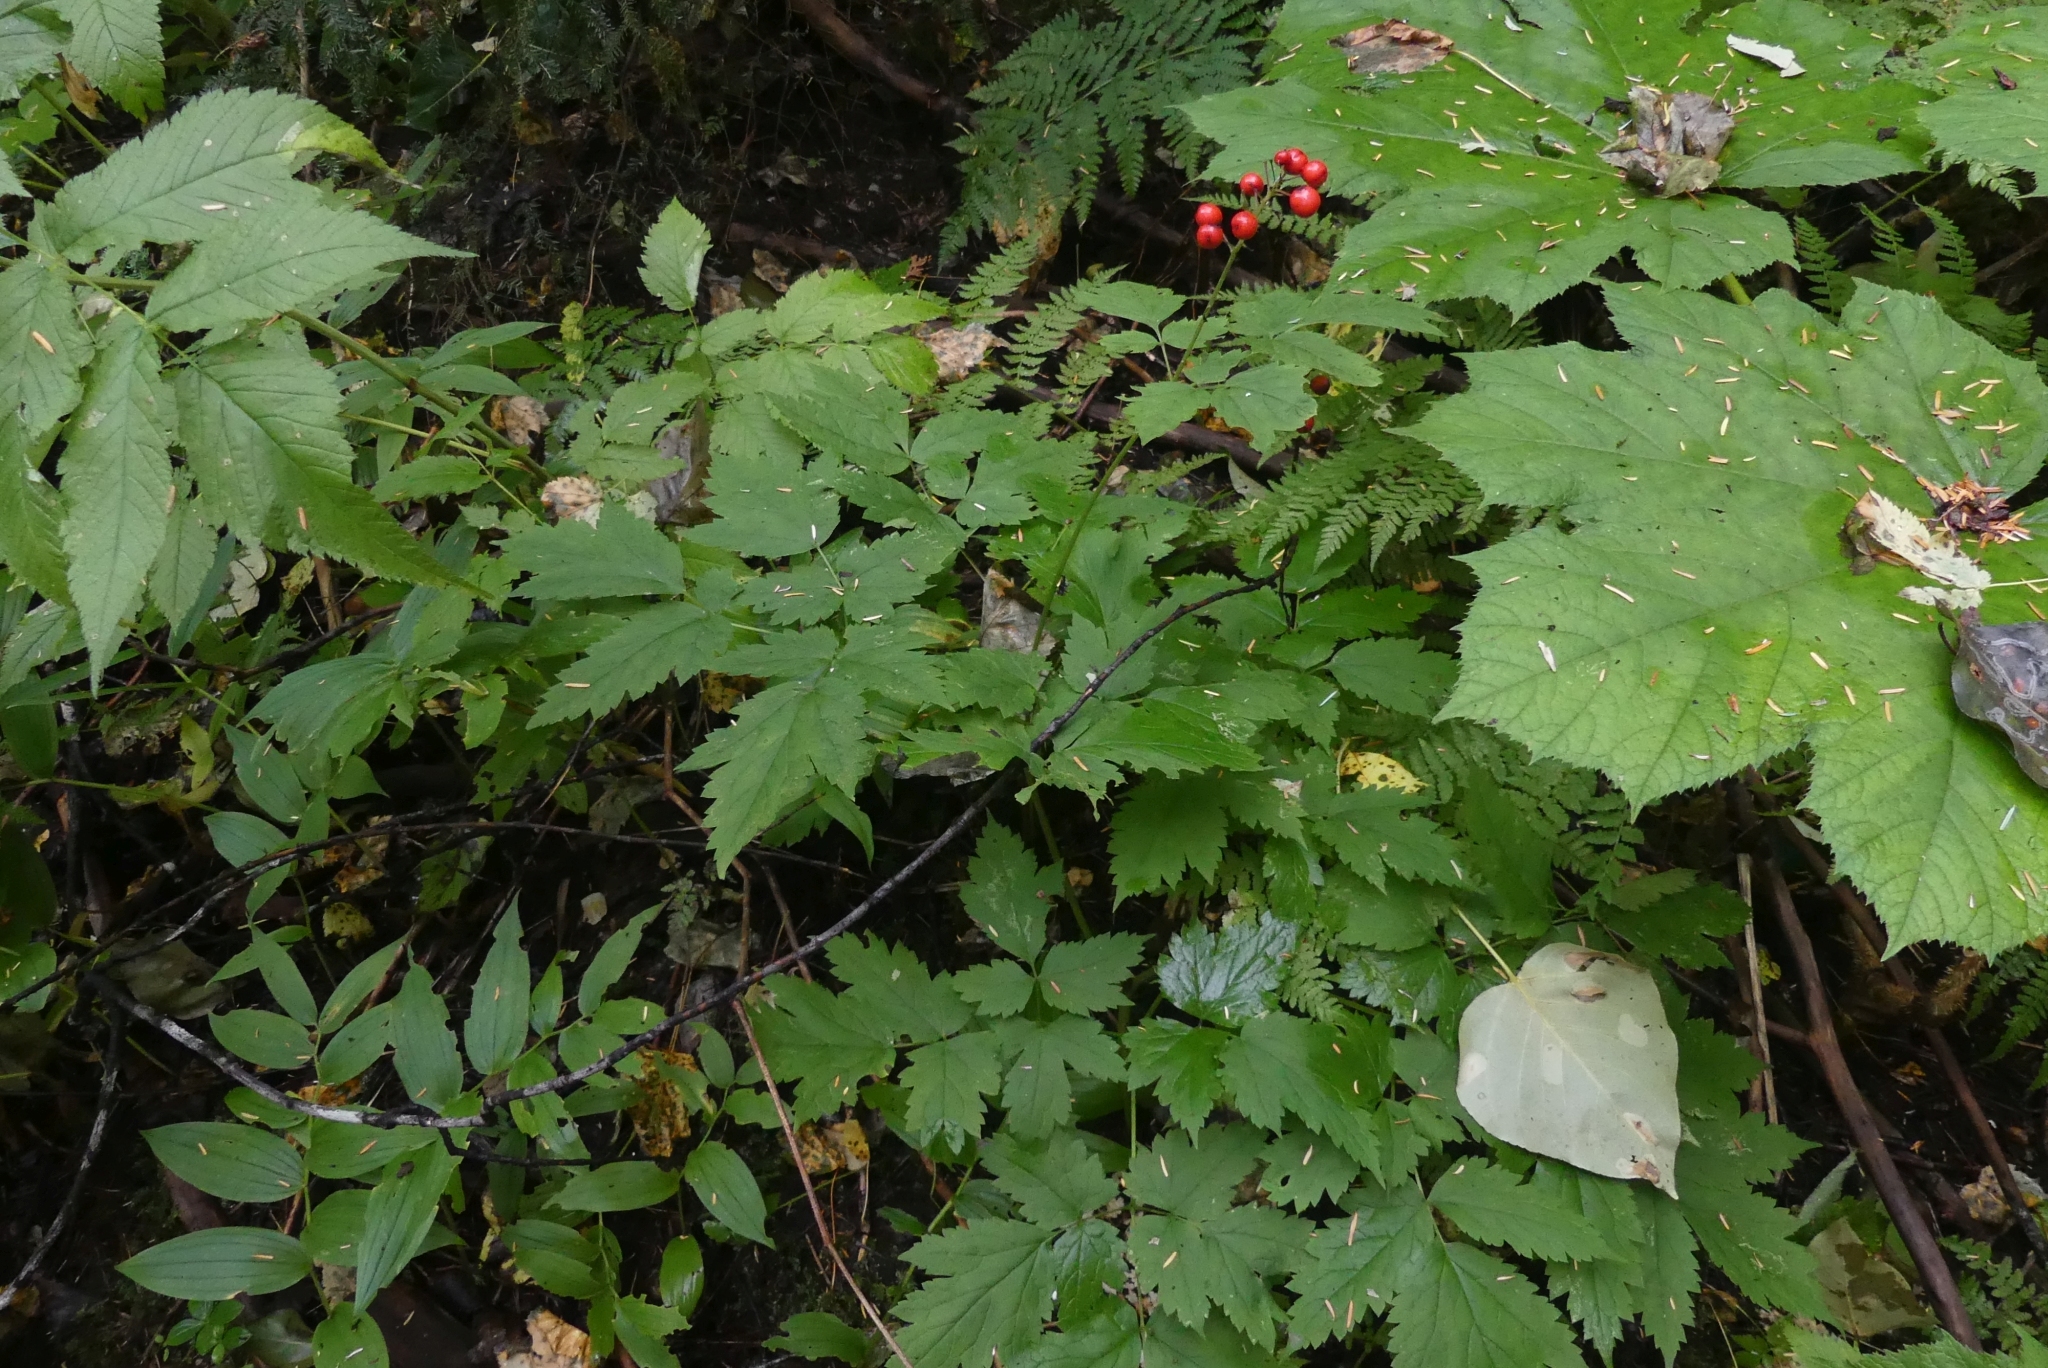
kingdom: Plantae
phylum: Tracheophyta
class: Magnoliopsida
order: Ranunculales
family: Ranunculaceae
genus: Actaea
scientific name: Actaea rubra
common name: Red baneberry
